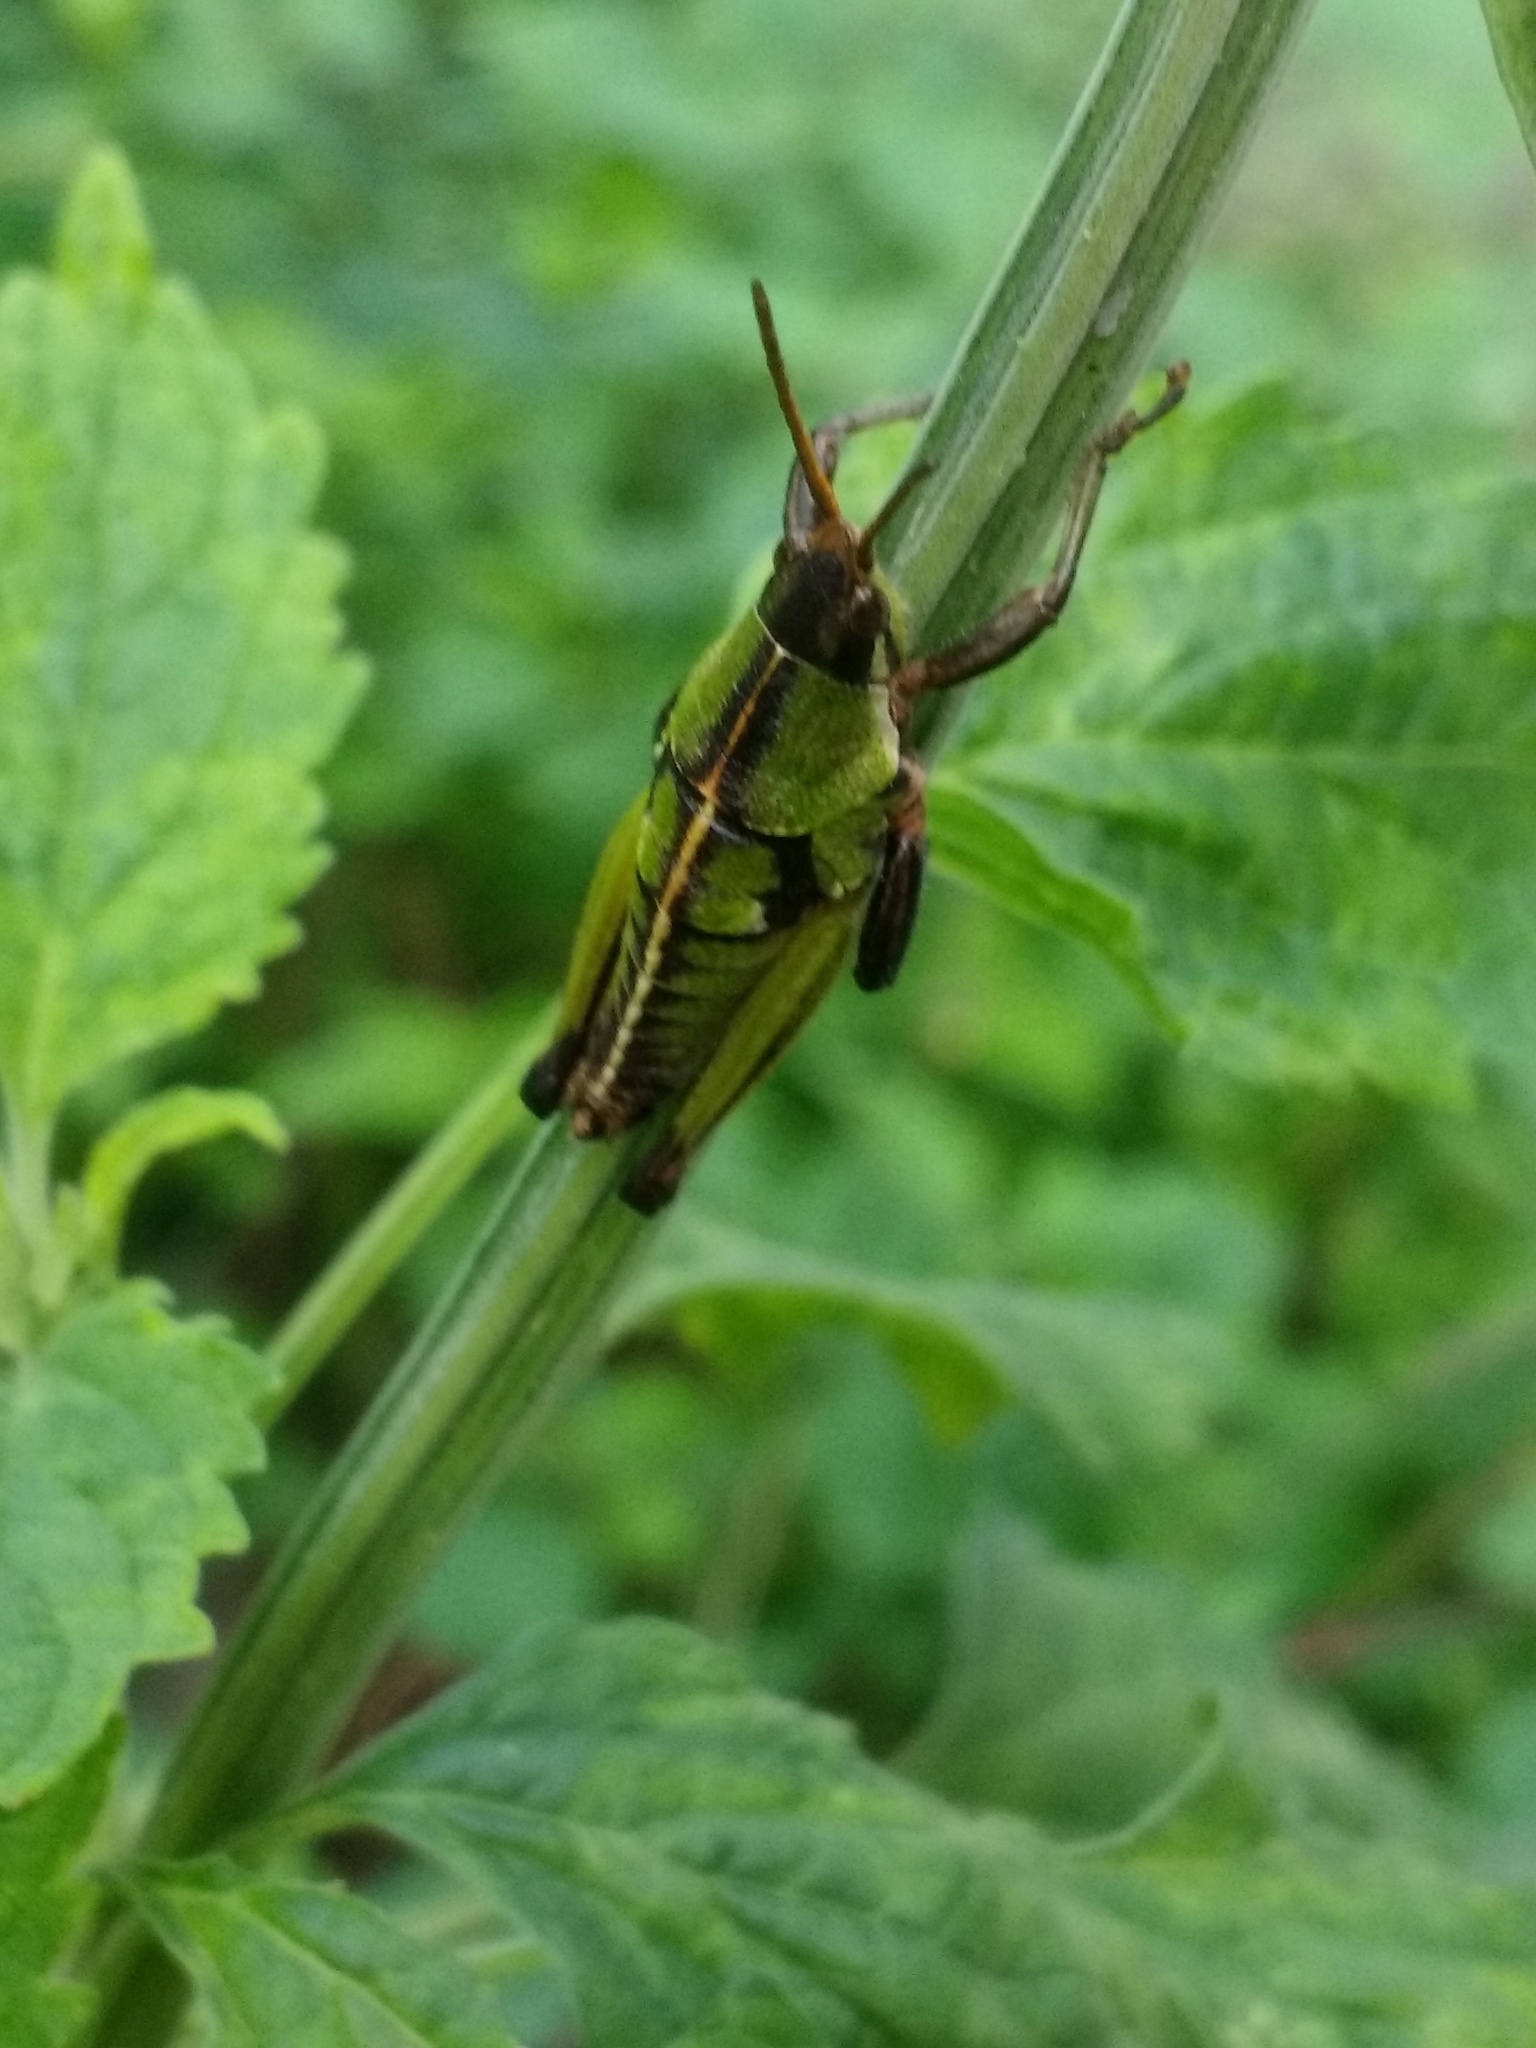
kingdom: Animalia
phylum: Arthropoda
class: Insecta
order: Orthoptera
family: Pyrgomorphidae
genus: Sphenarium
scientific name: Sphenarium purpurascens
